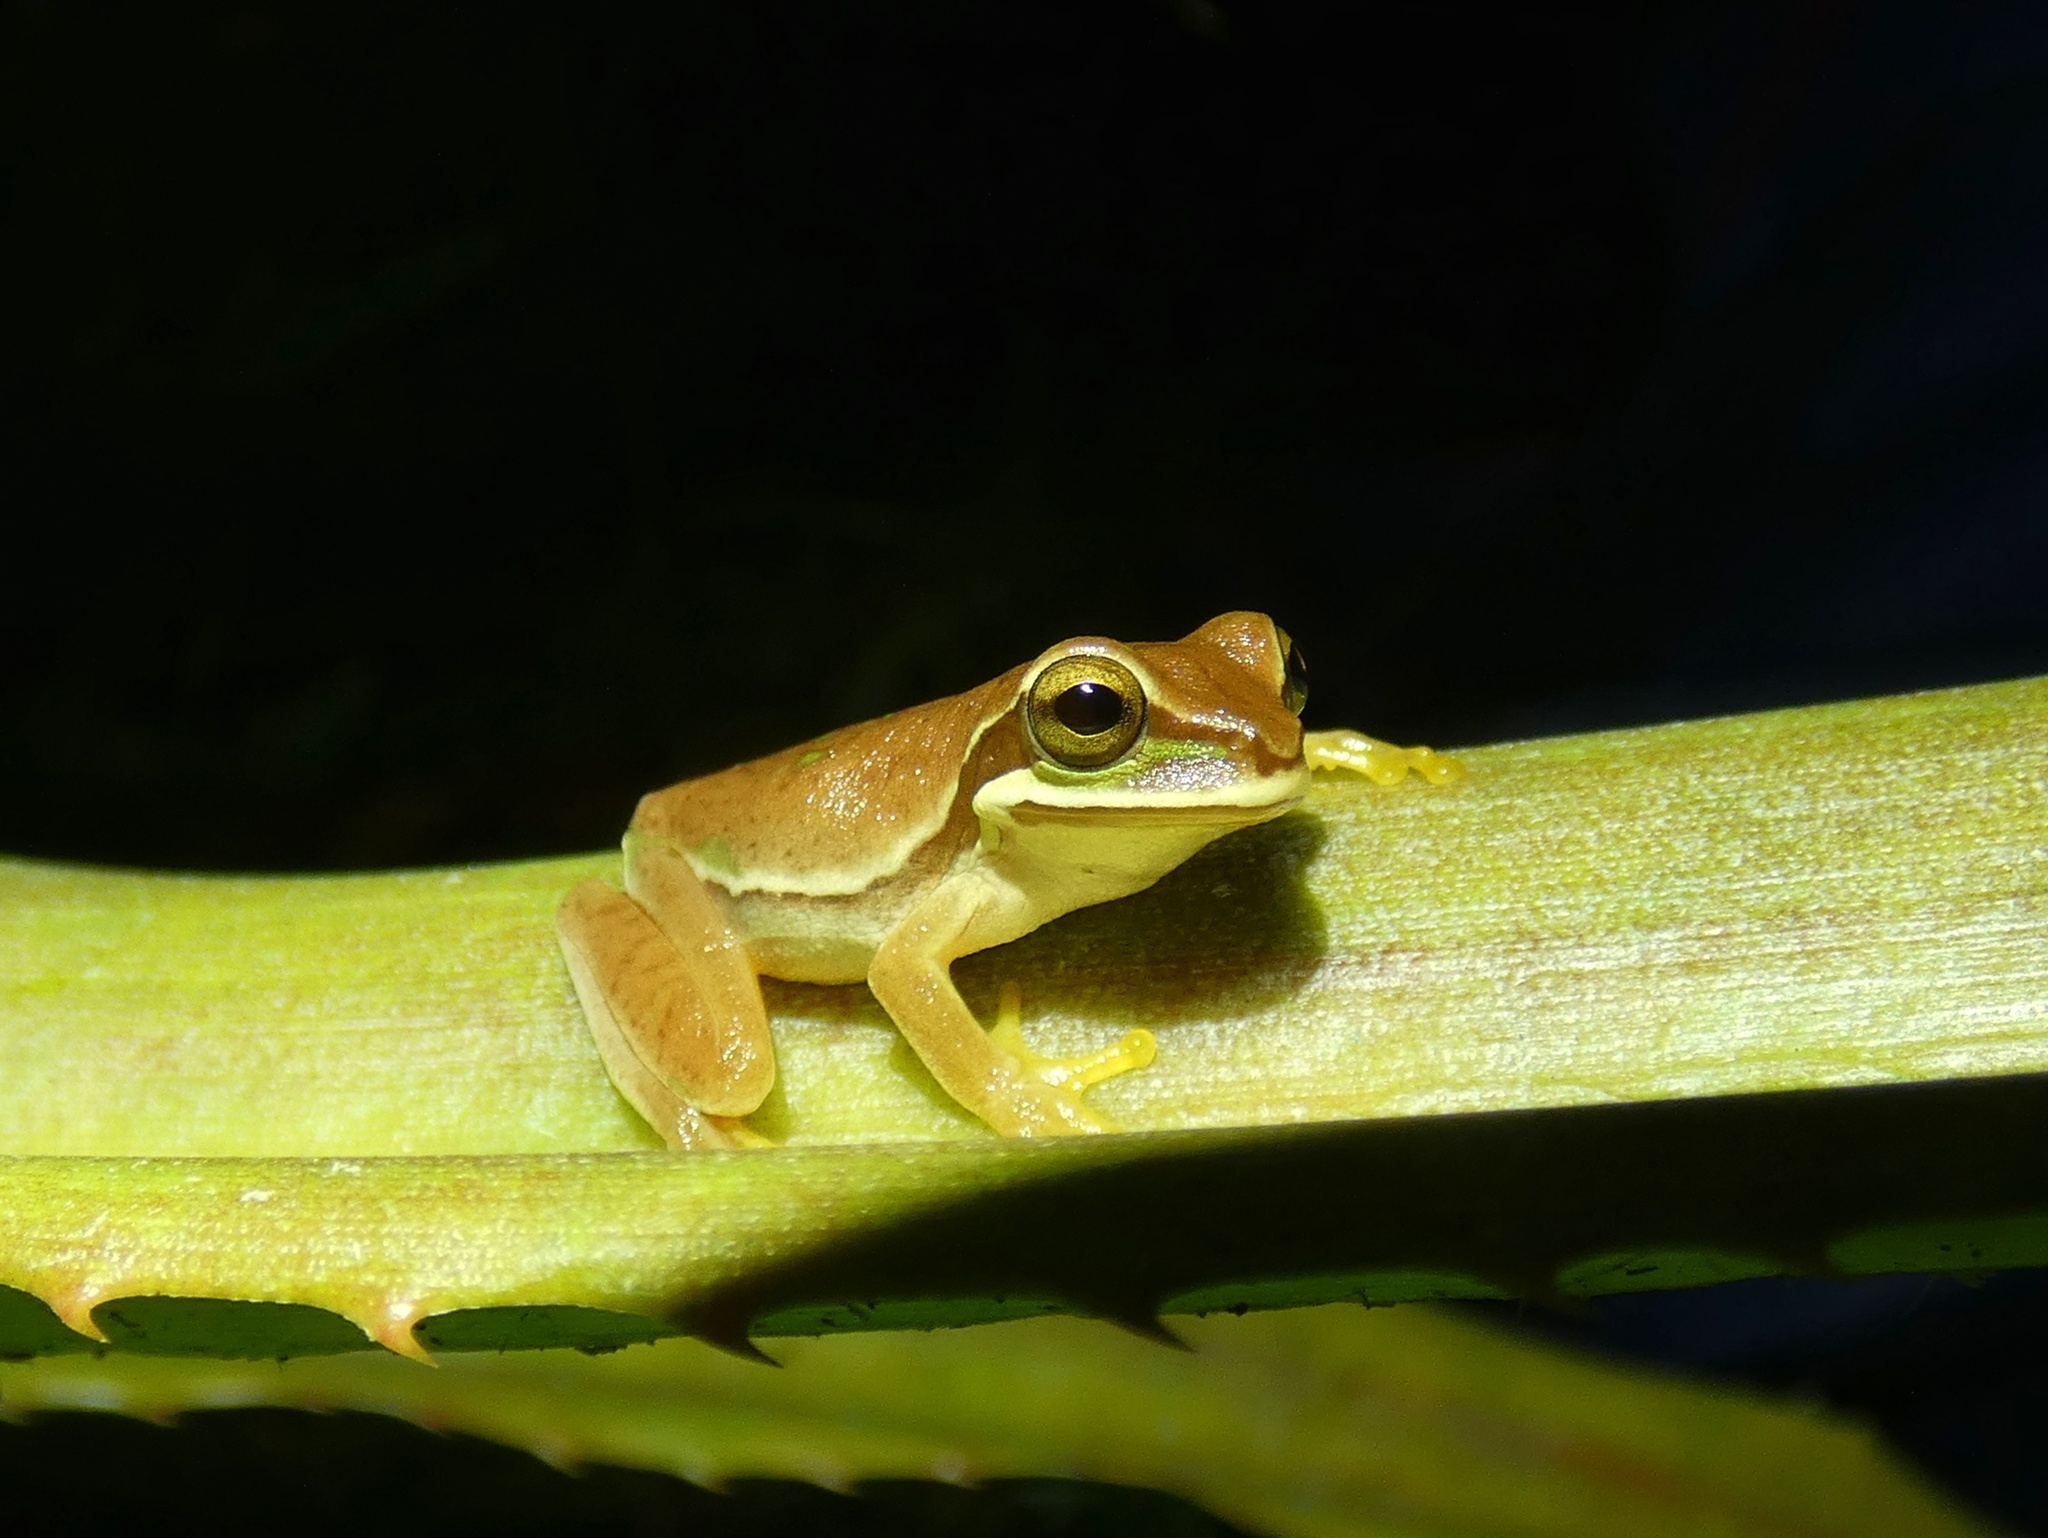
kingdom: Animalia
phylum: Chordata
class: Amphibia
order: Anura
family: Hylidae
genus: Smilisca
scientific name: Smilisca phaeota
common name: Central american smilisca
